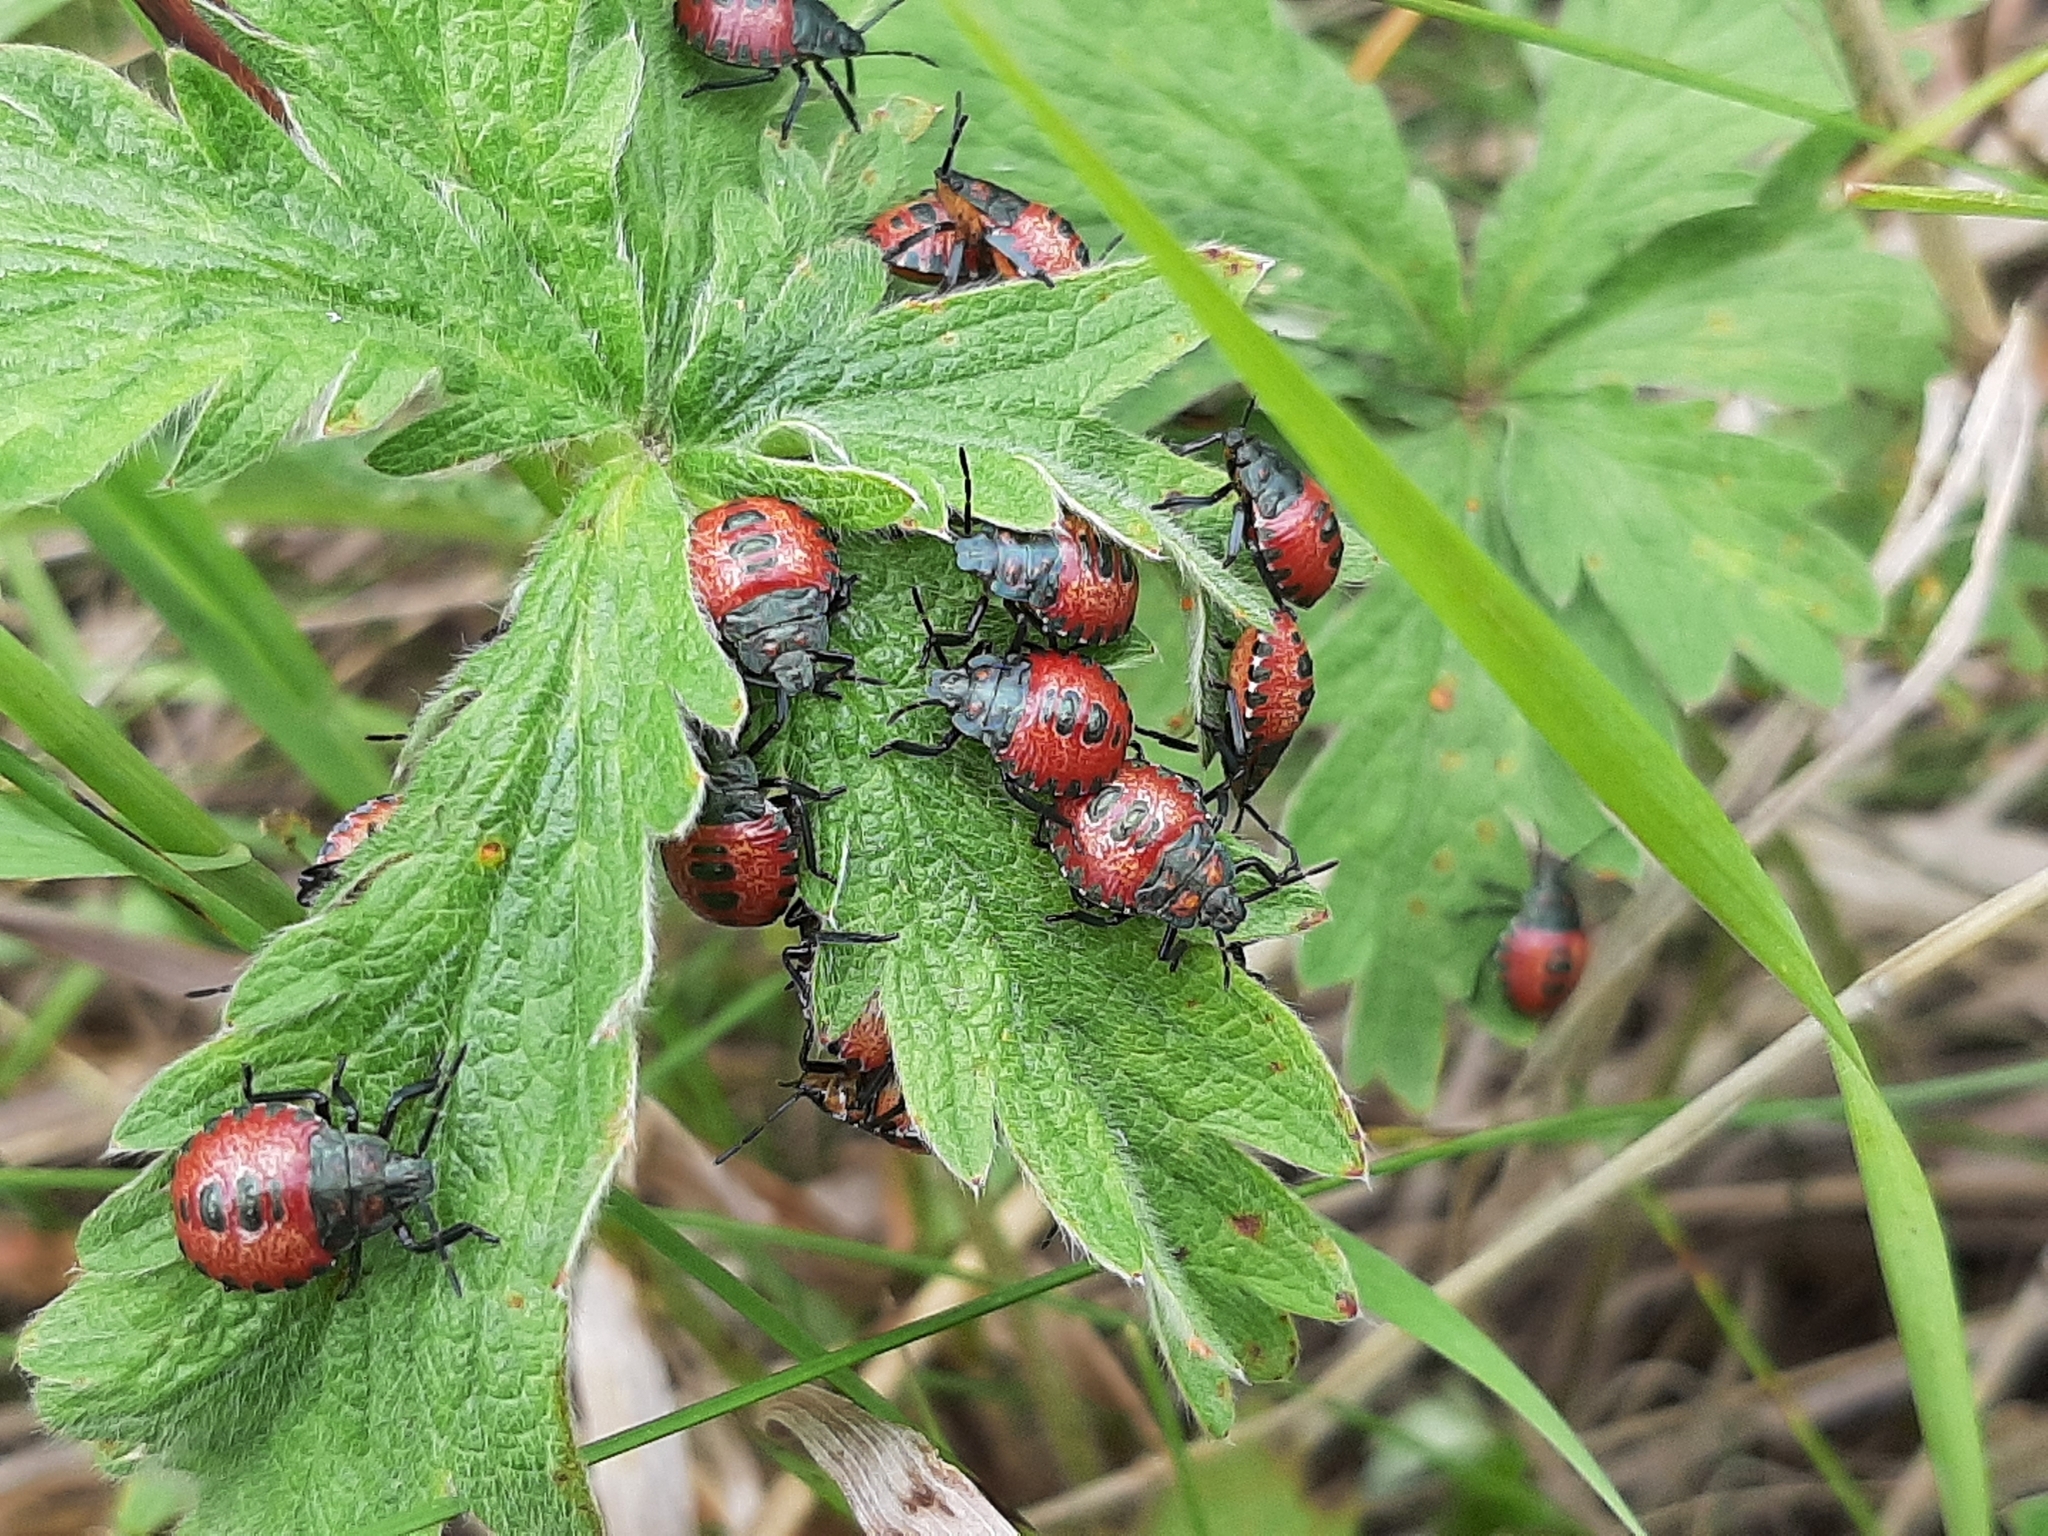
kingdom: Animalia
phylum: Arthropoda
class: Insecta
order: Hemiptera
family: Cydnidae
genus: Sehirus
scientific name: Sehirus cinctus
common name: White-margined burrower bug
